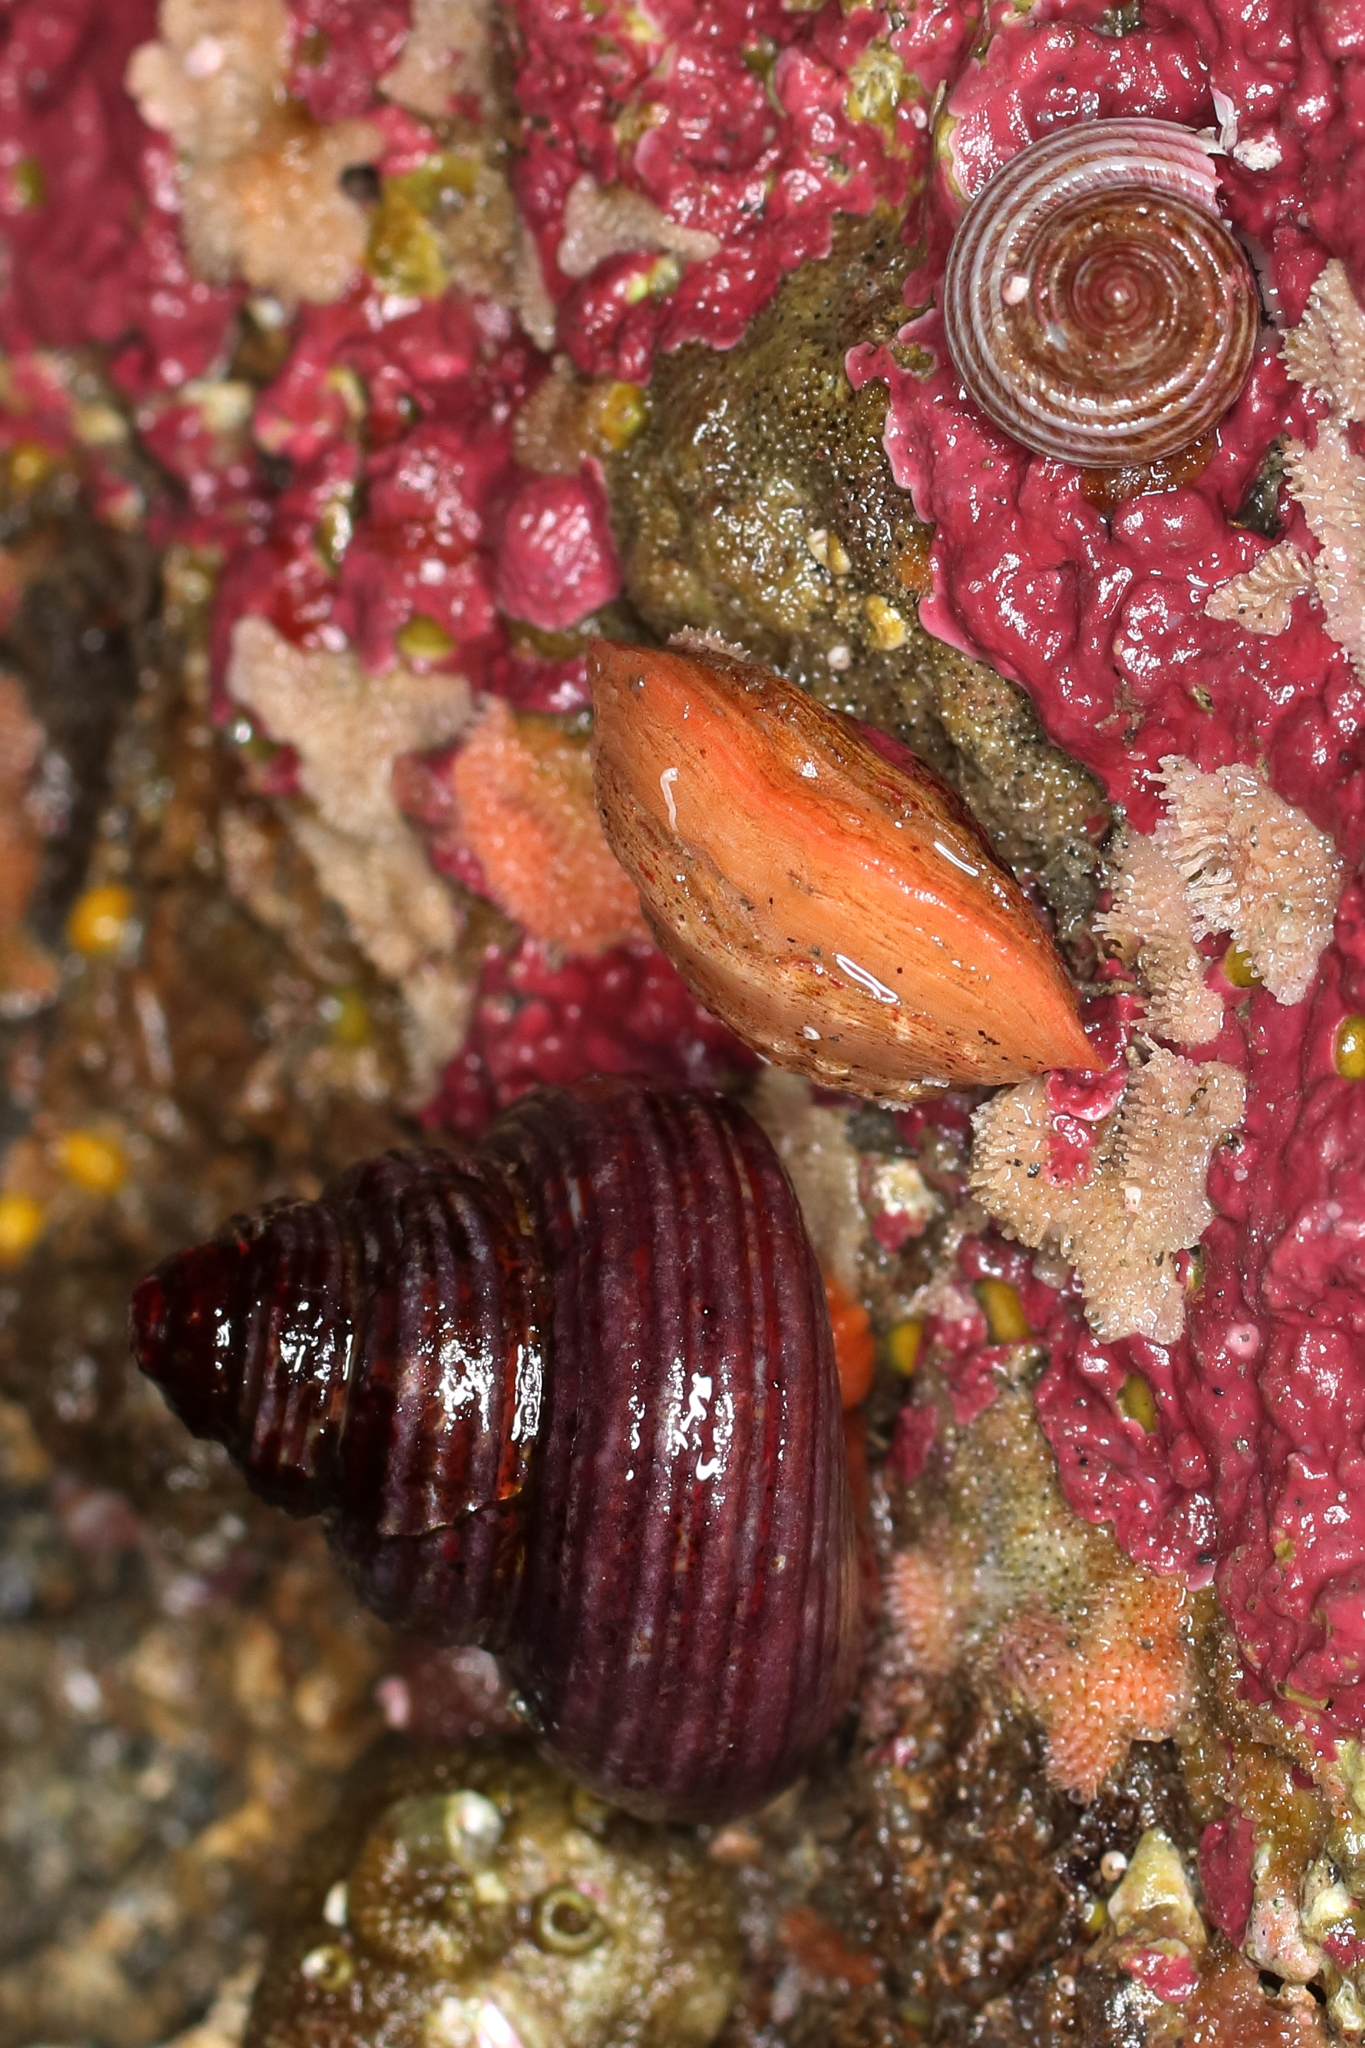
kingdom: Animalia
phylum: Brachiopoda
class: Rhynchonellata
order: Terebratulida
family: Terebrataliidae
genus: Terebratalia
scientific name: Terebratalia transversa
